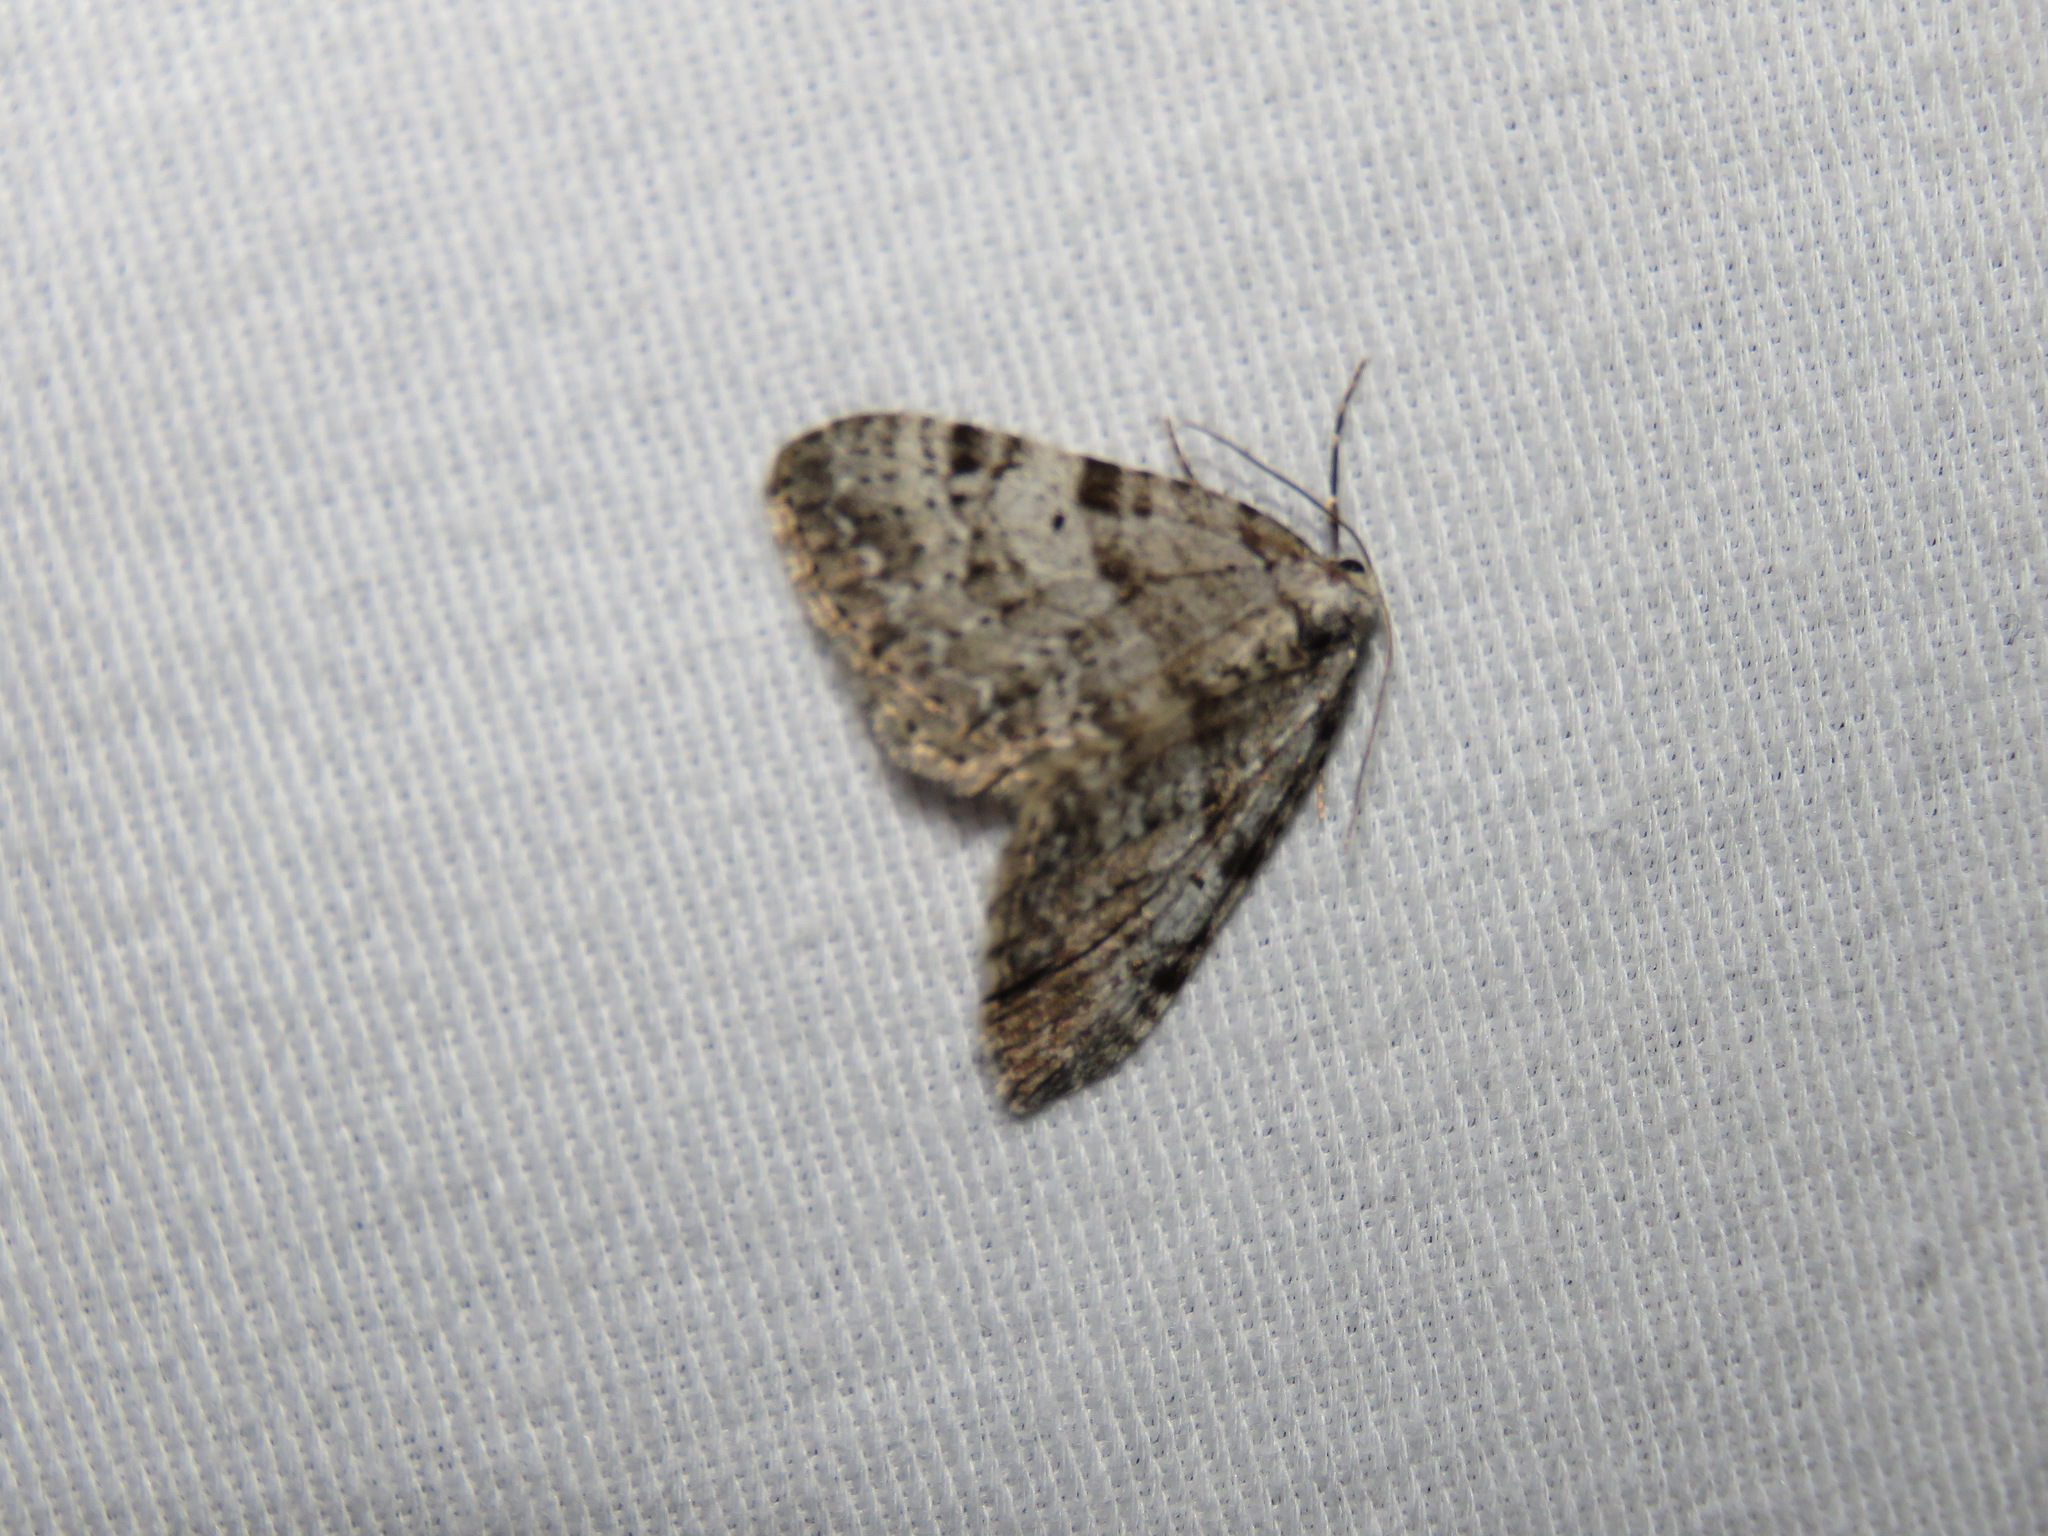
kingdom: Animalia
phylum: Arthropoda
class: Insecta
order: Lepidoptera
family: Geometridae
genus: Perizoma
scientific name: Perizoma curvilinea
